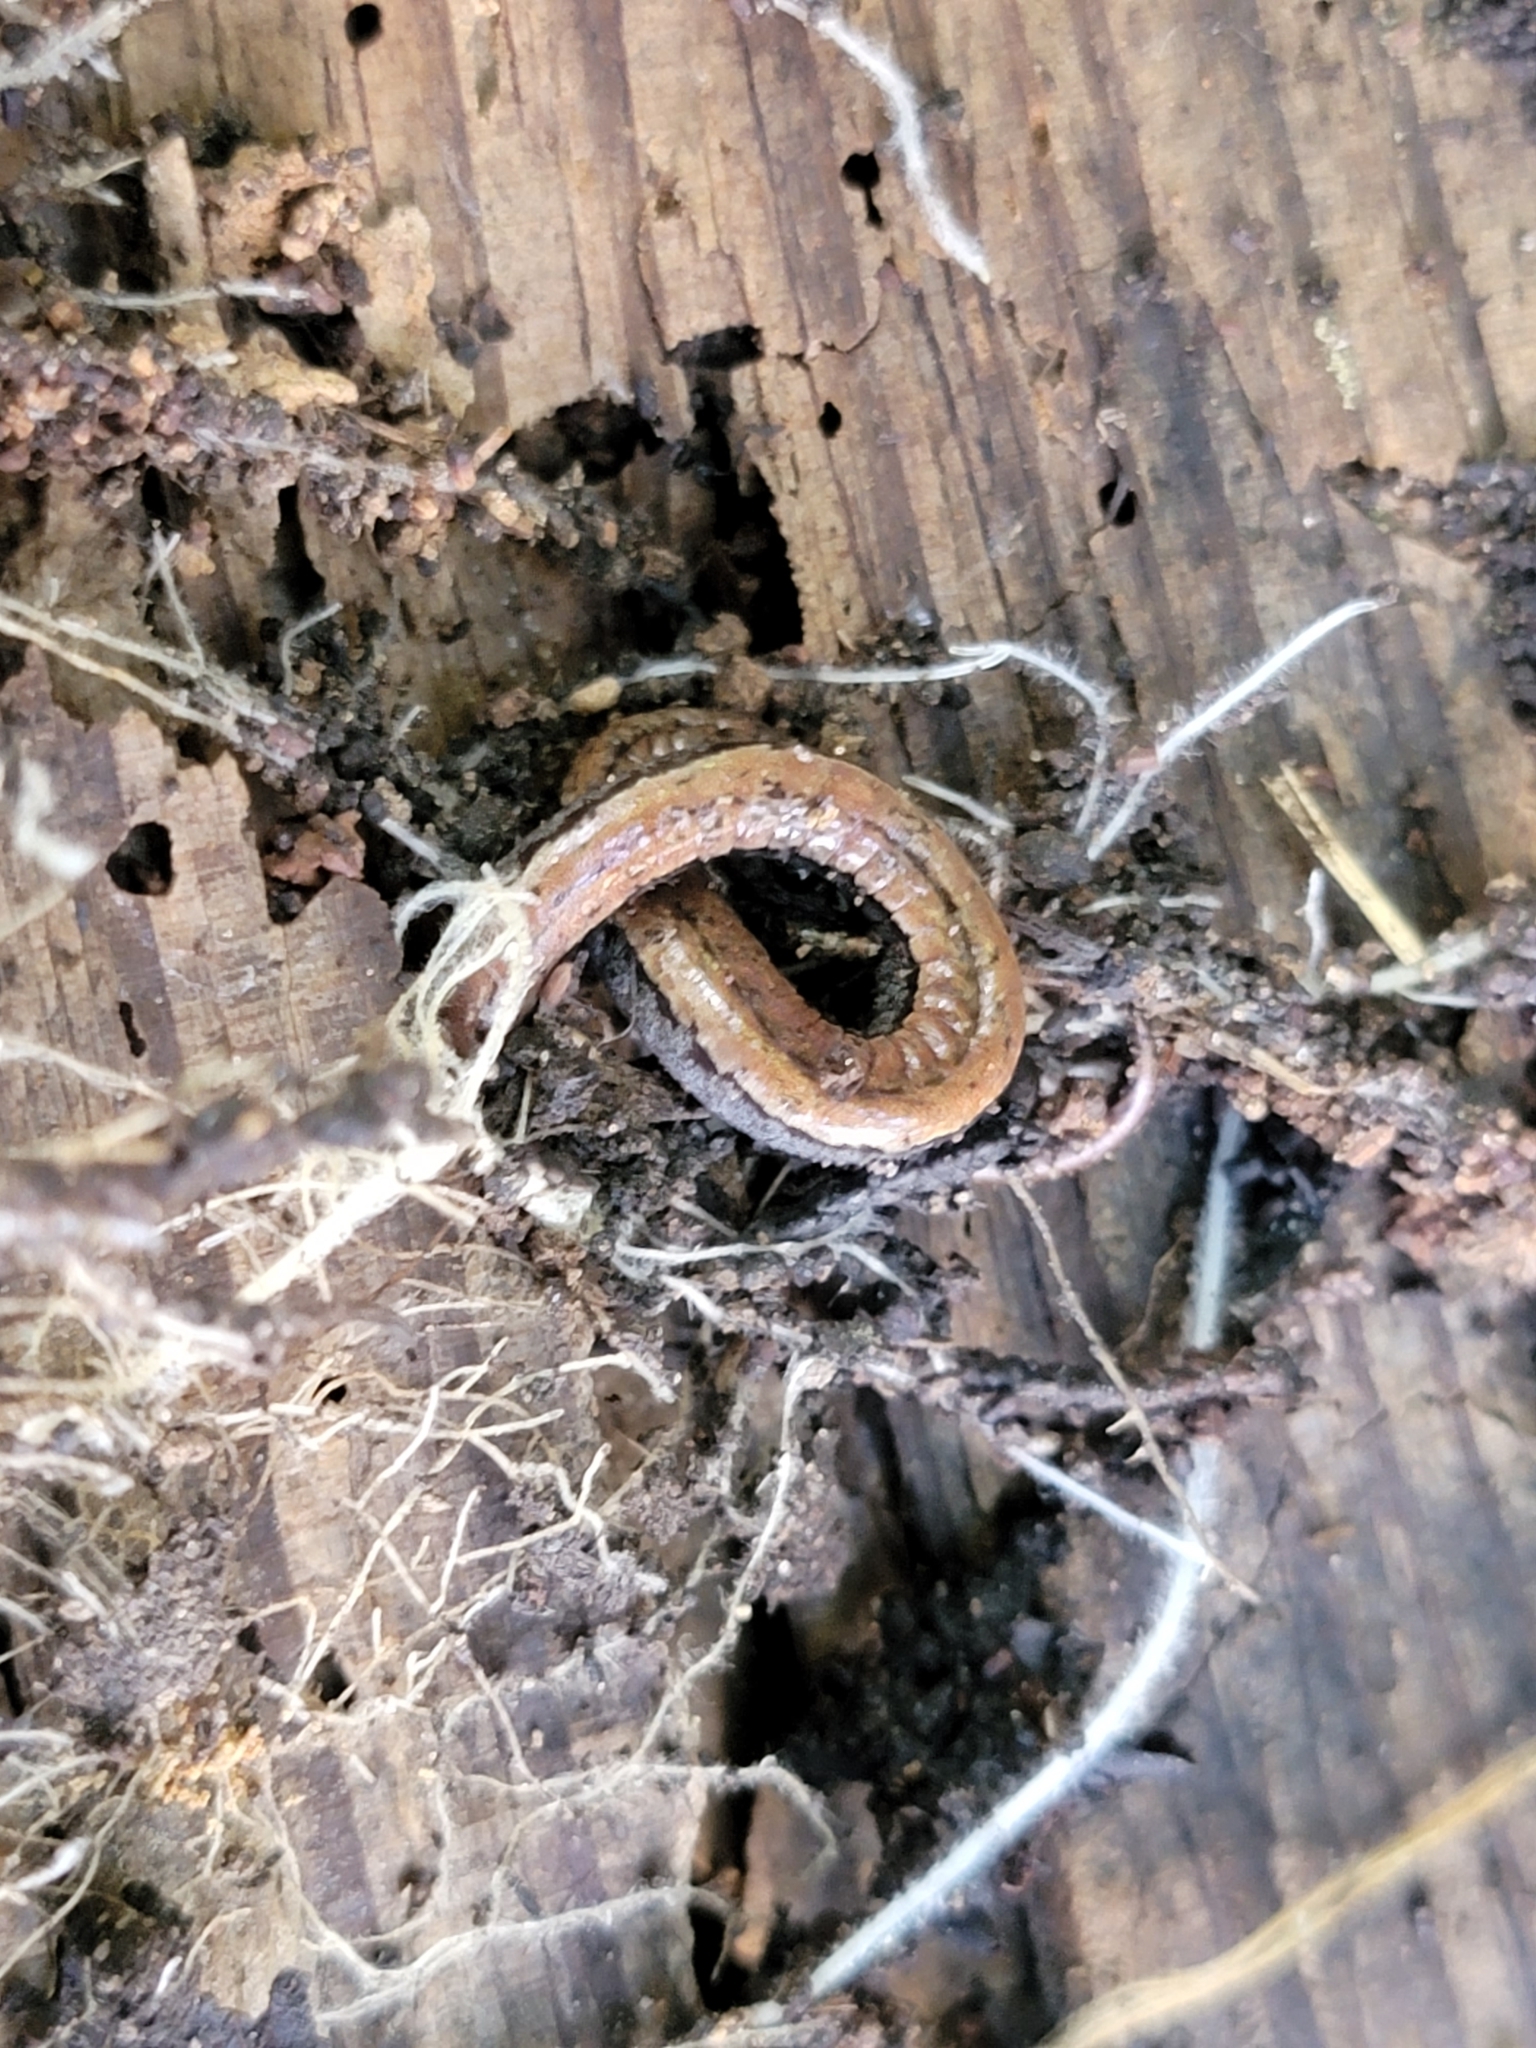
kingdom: Animalia
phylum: Chordata
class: Amphibia
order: Caudata
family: Plethodontidae
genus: Batrachoseps
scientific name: Batrachoseps luciae
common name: Santa lucia mountains slender salamander
